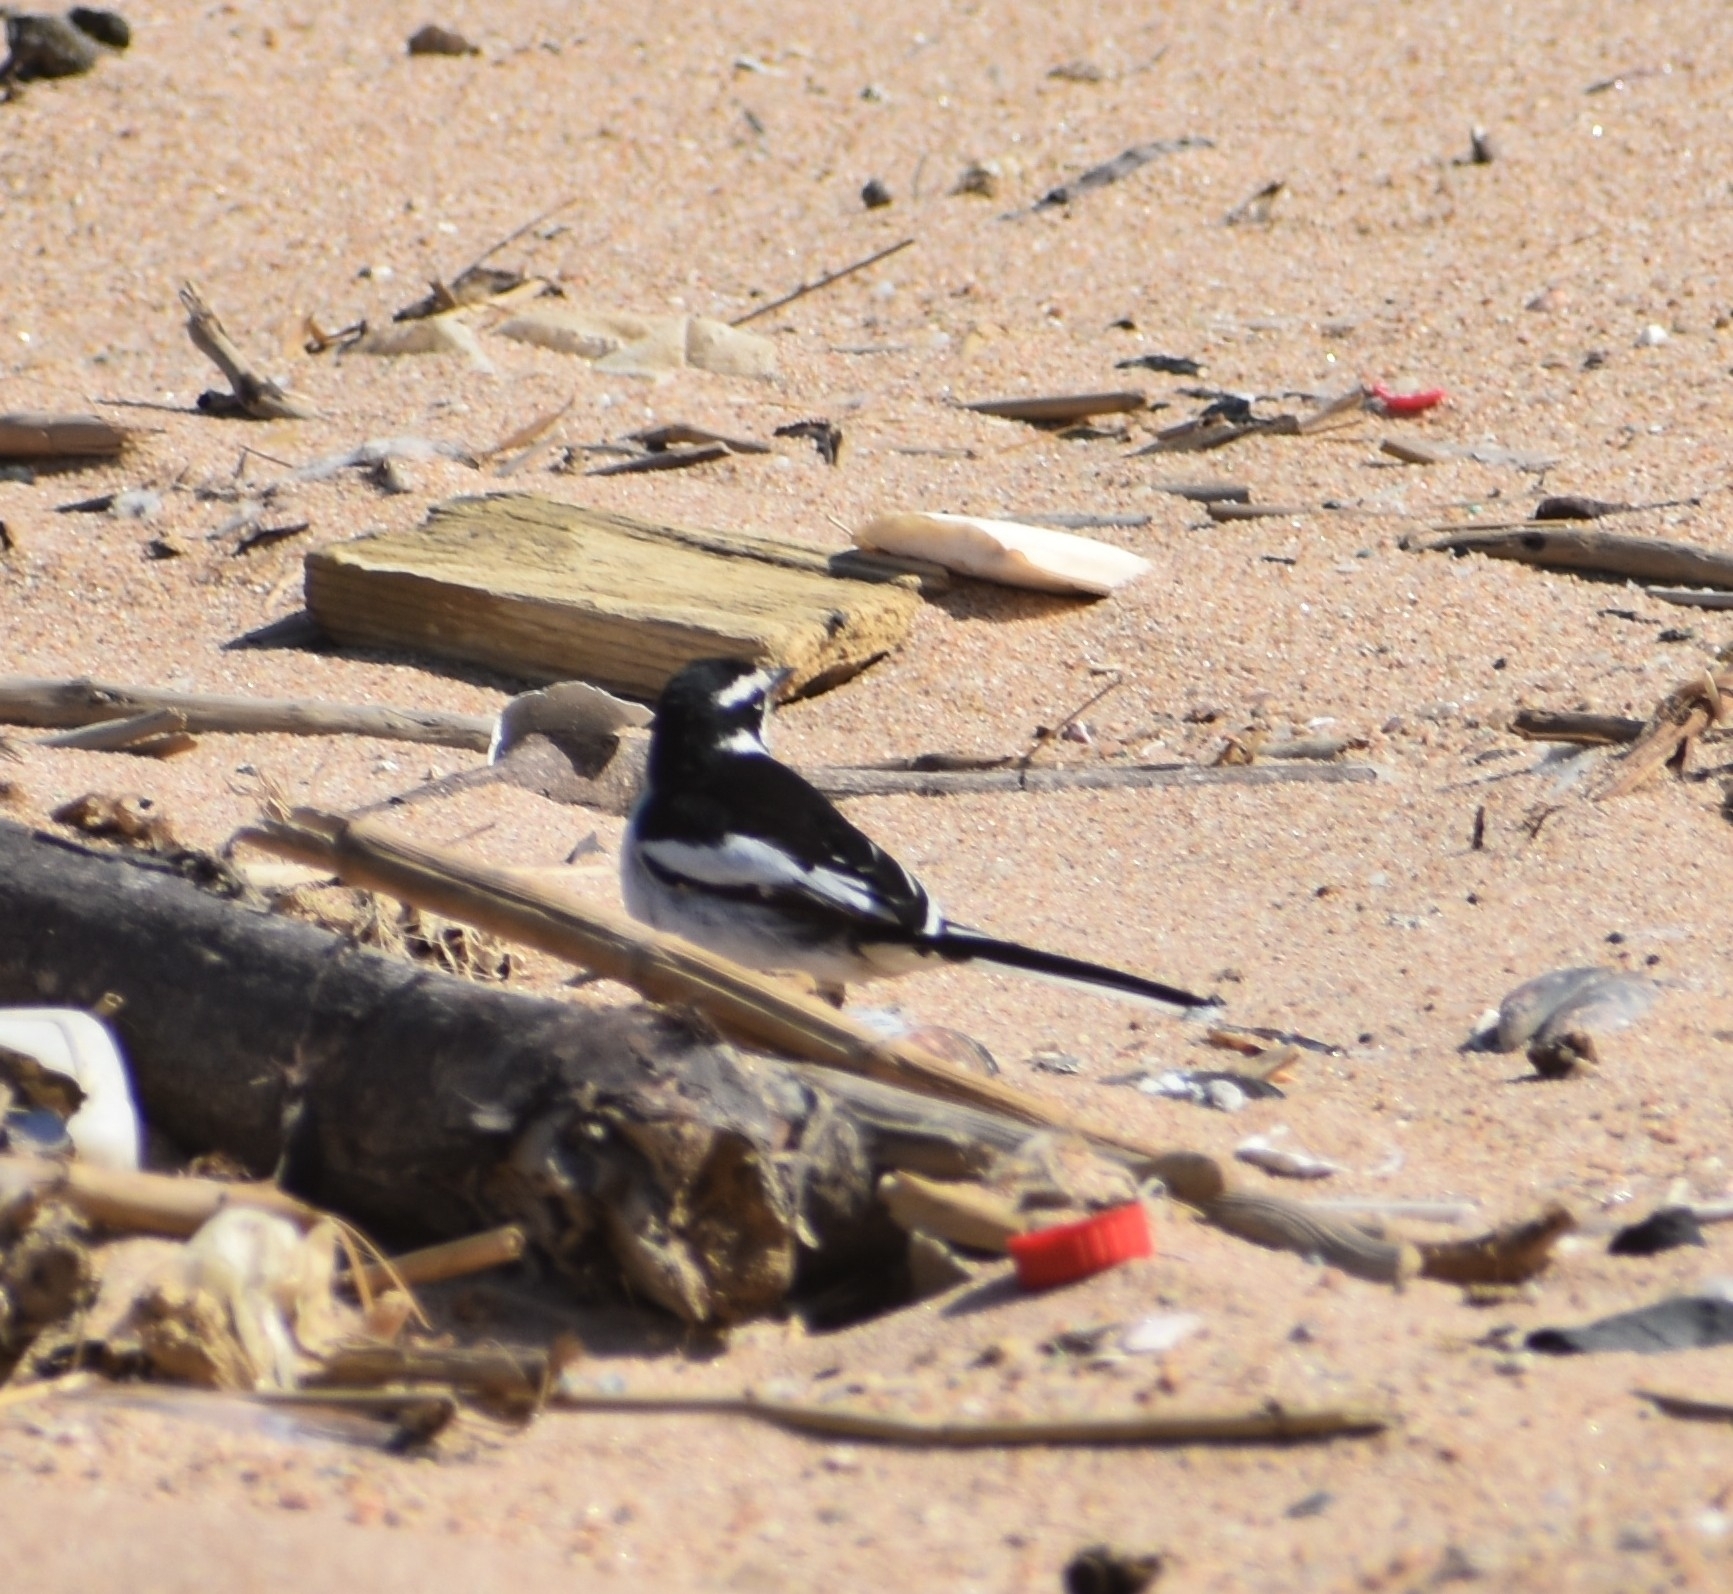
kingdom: Animalia
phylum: Chordata
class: Aves
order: Passeriformes
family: Motacillidae
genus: Motacilla
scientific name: Motacilla aguimp
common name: African pied wagtail
